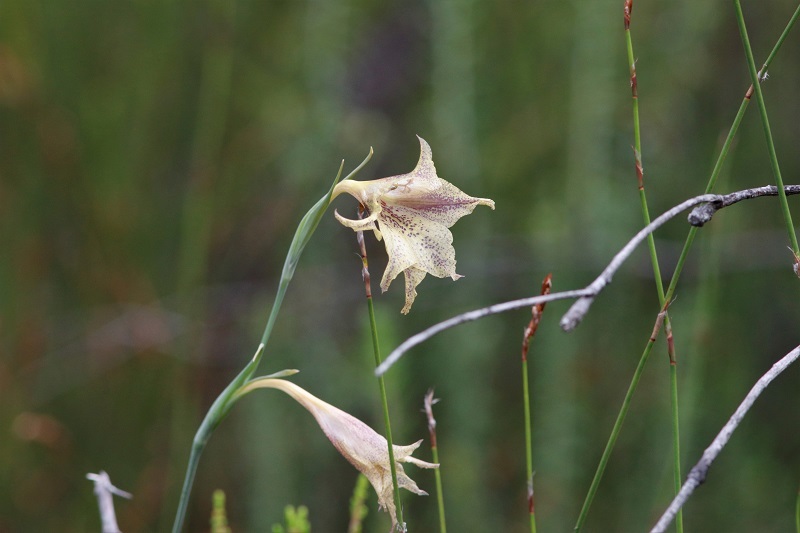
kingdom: Plantae
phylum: Tracheophyta
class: Liliopsida
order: Asparagales
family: Iridaceae
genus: Gladiolus
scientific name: Gladiolus maculatus
